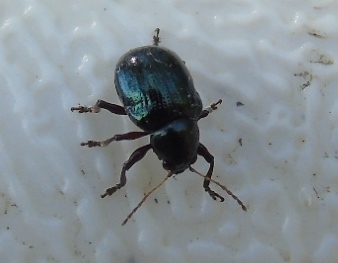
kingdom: Animalia
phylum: Arthropoda
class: Insecta
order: Coleoptera
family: Chrysomelidae
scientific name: Chrysomelidae
